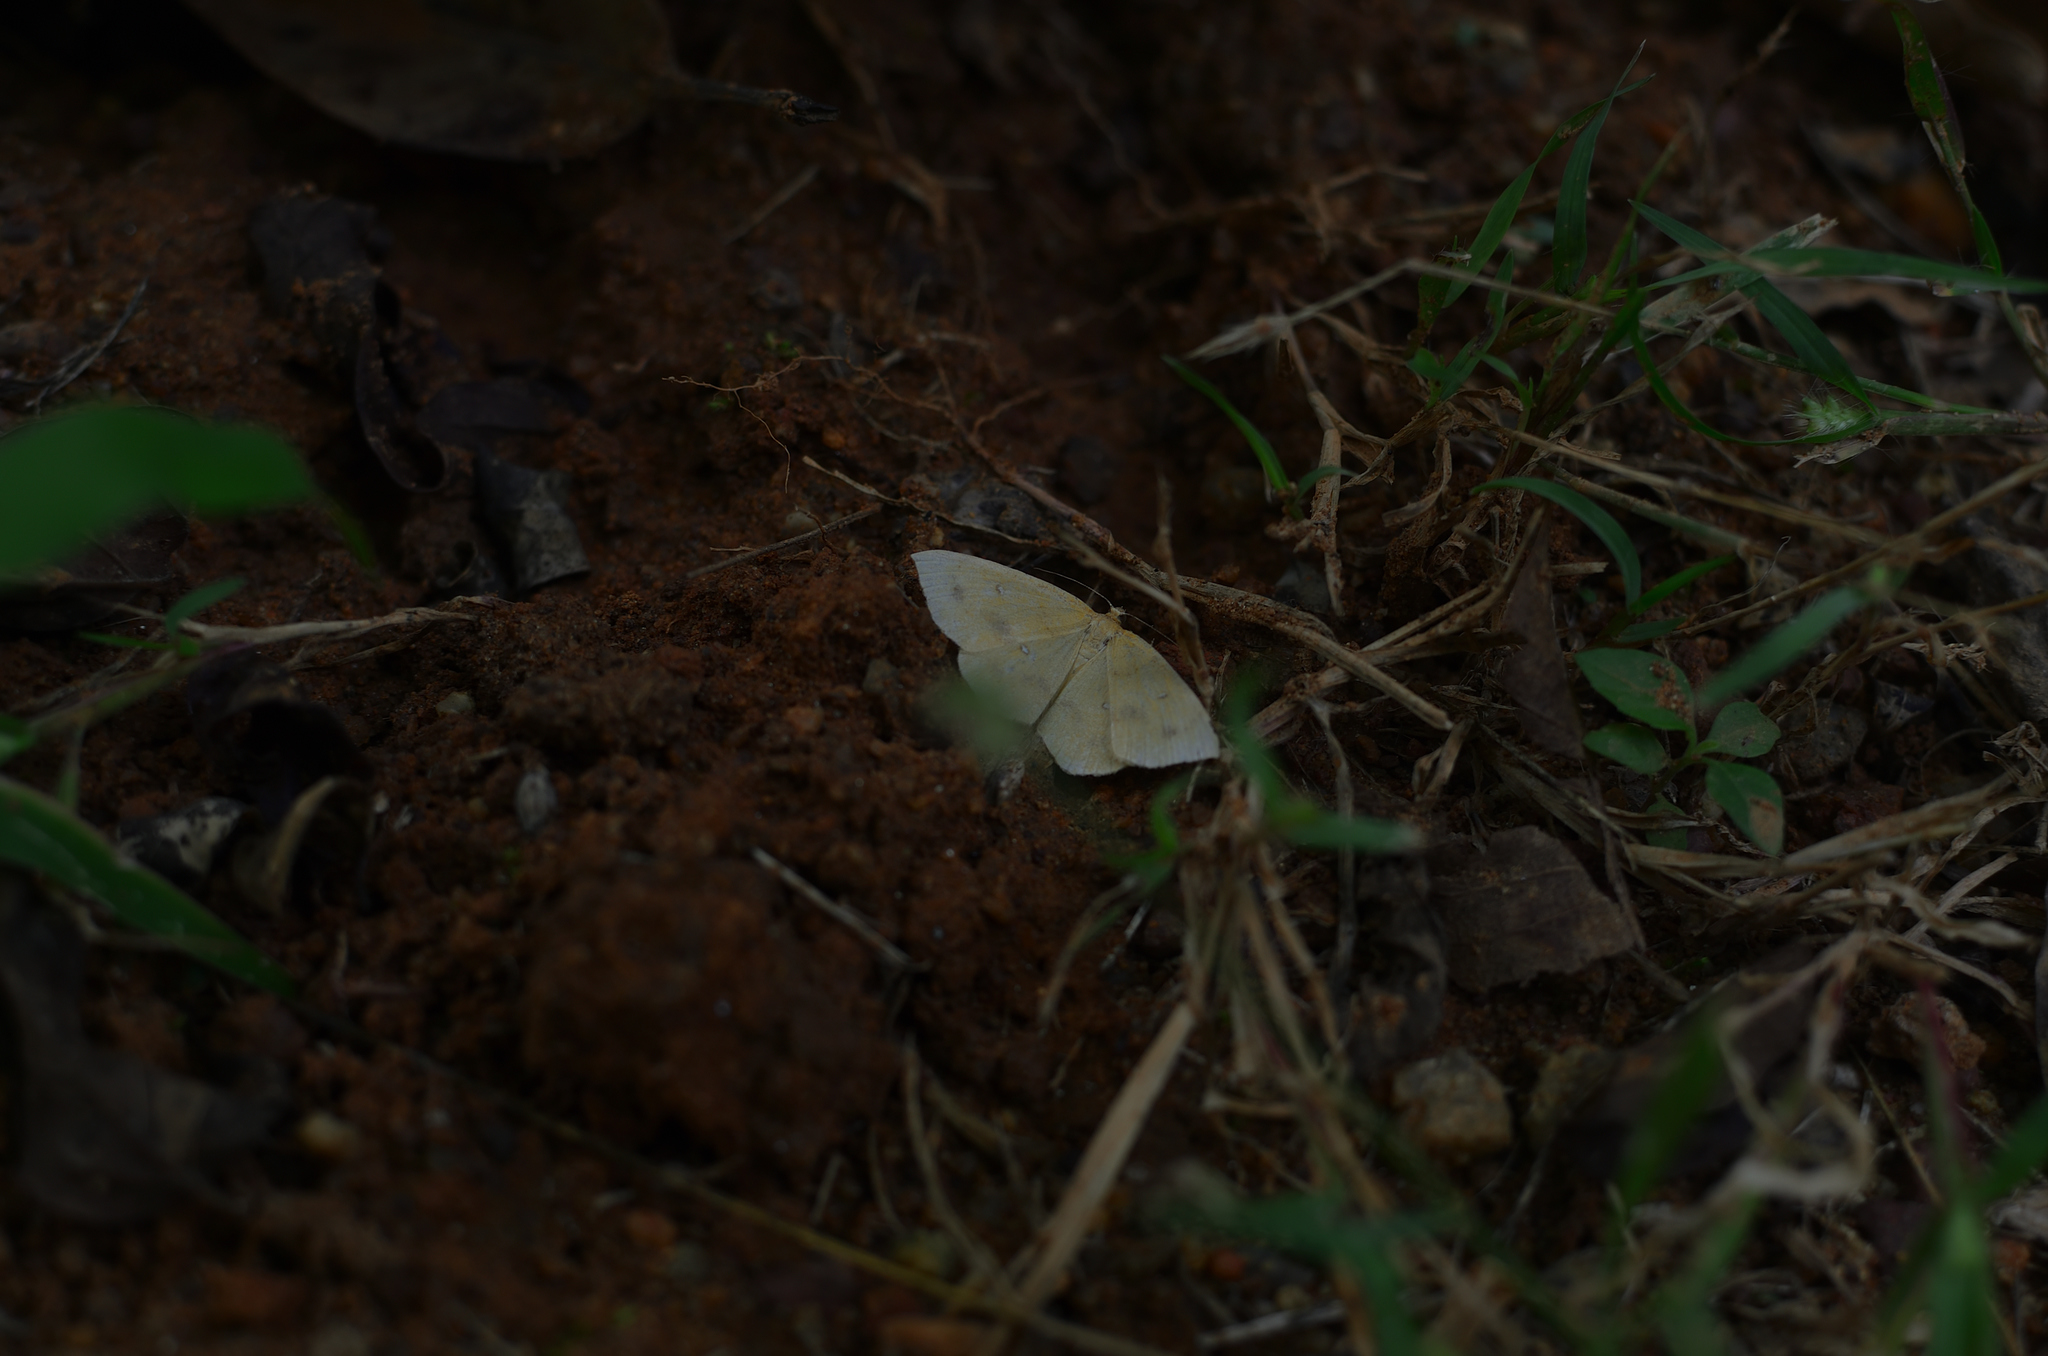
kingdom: Animalia
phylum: Arthropoda
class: Insecta
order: Lepidoptera
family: Geometridae
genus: Palaeaspilates
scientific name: Palaeaspilates Anisephyra ocularia
